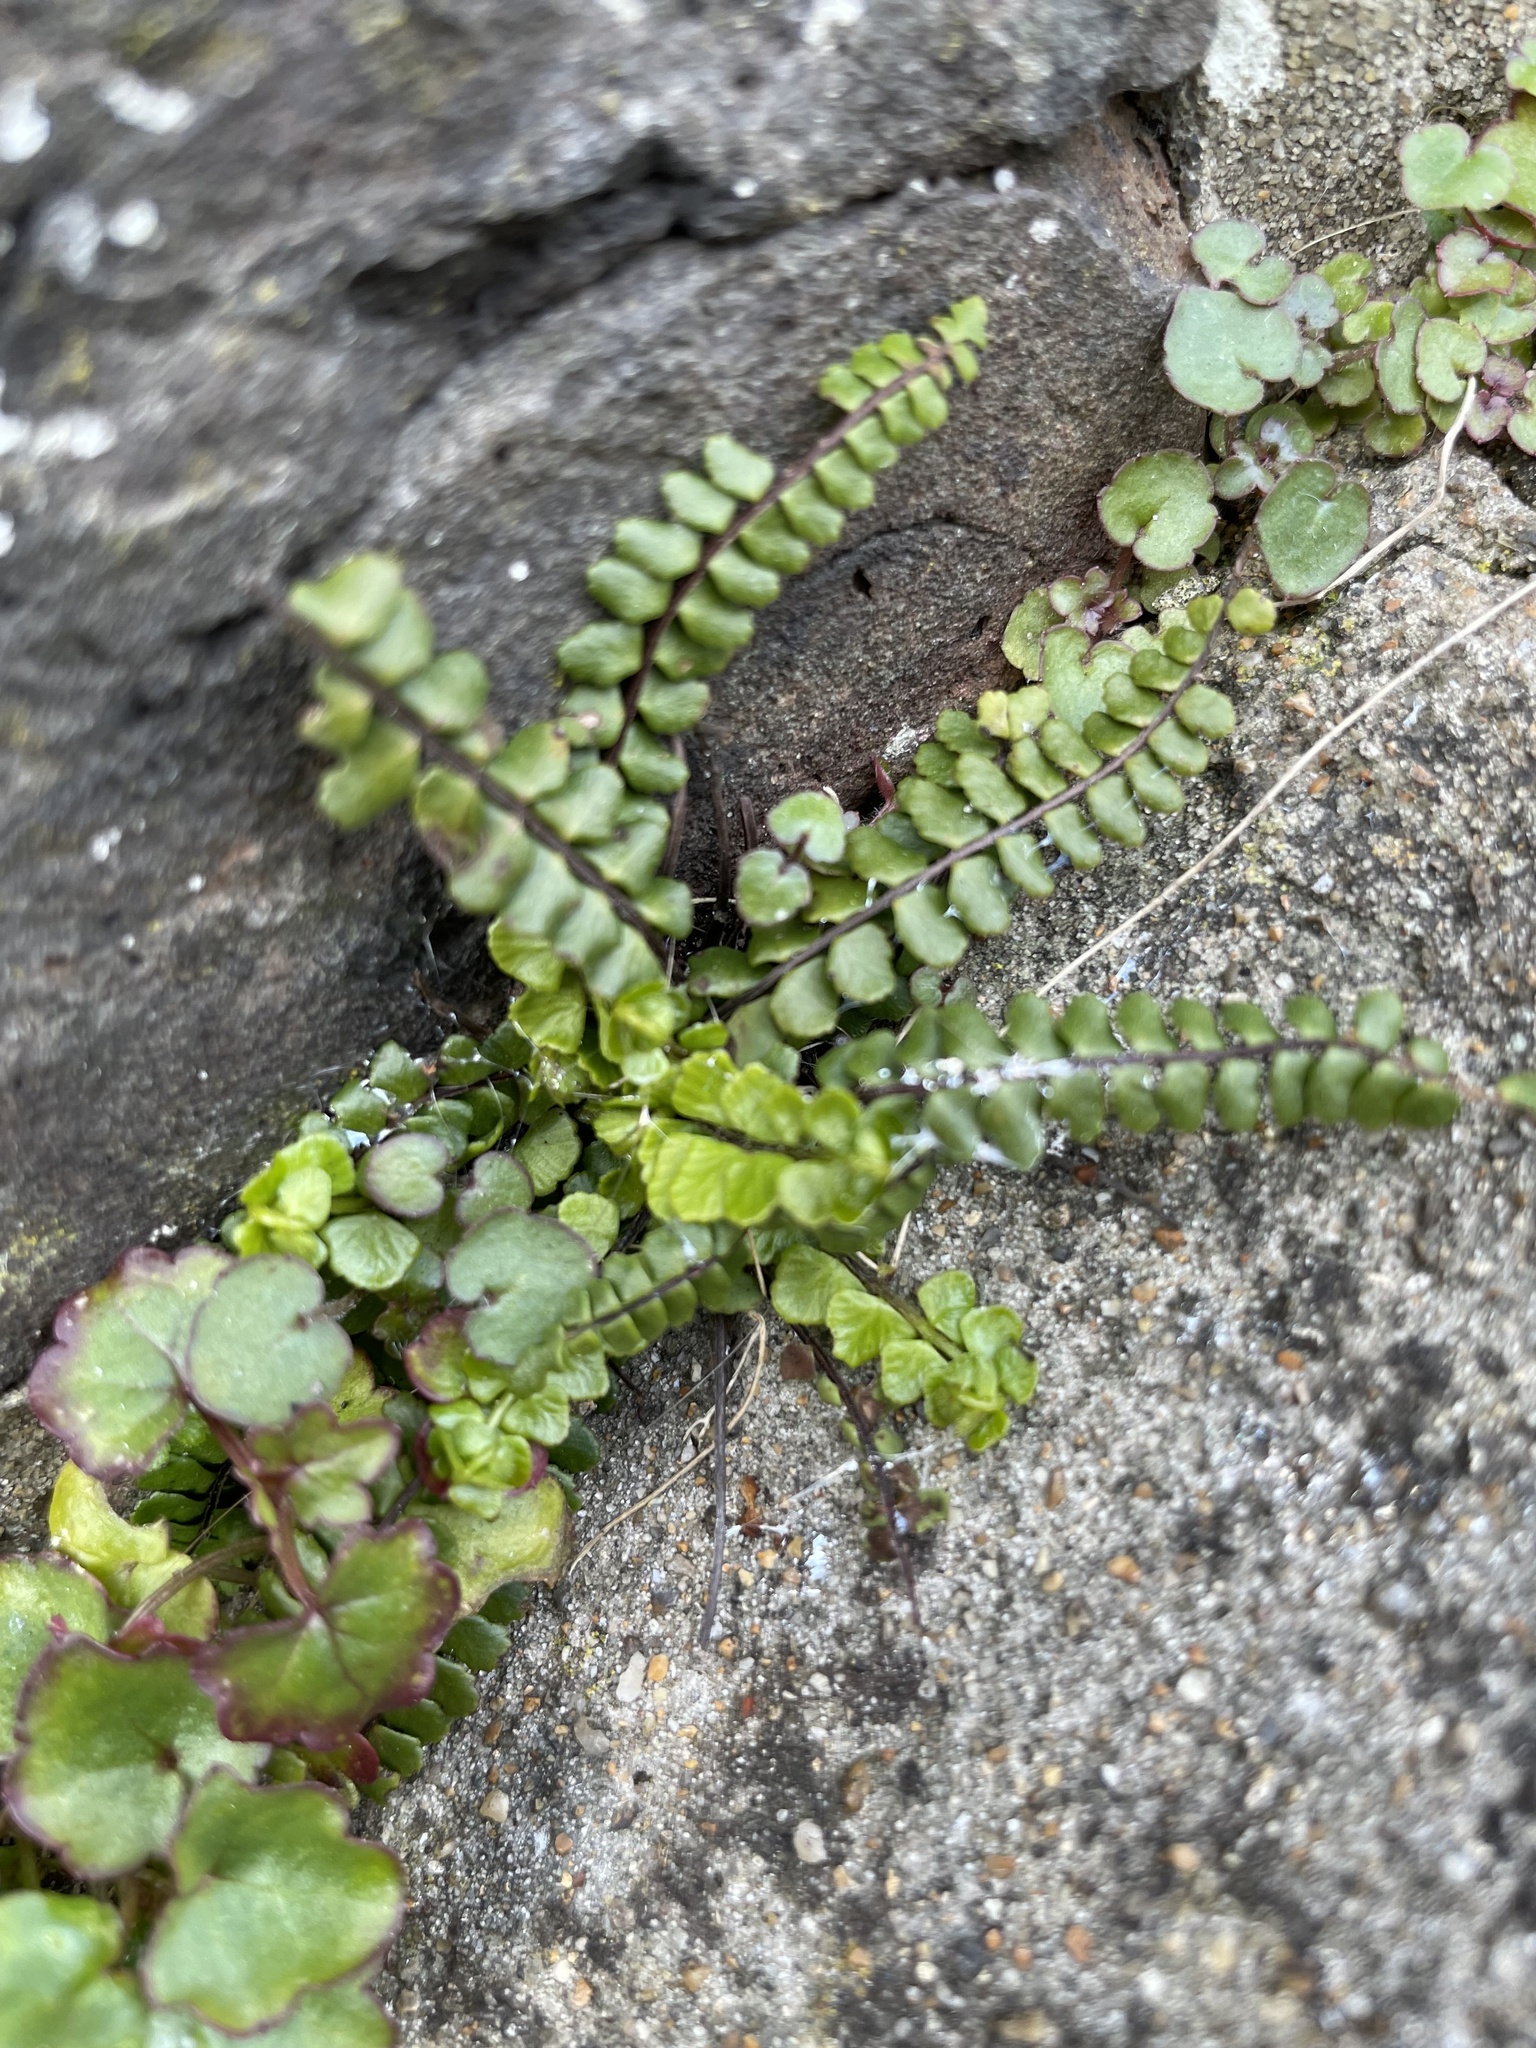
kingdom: Plantae
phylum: Tracheophyta
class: Polypodiopsida
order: Polypodiales
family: Aspleniaceae
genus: Asplenium
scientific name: Asplenium trichomanes
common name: Maidenhair spleenwort
